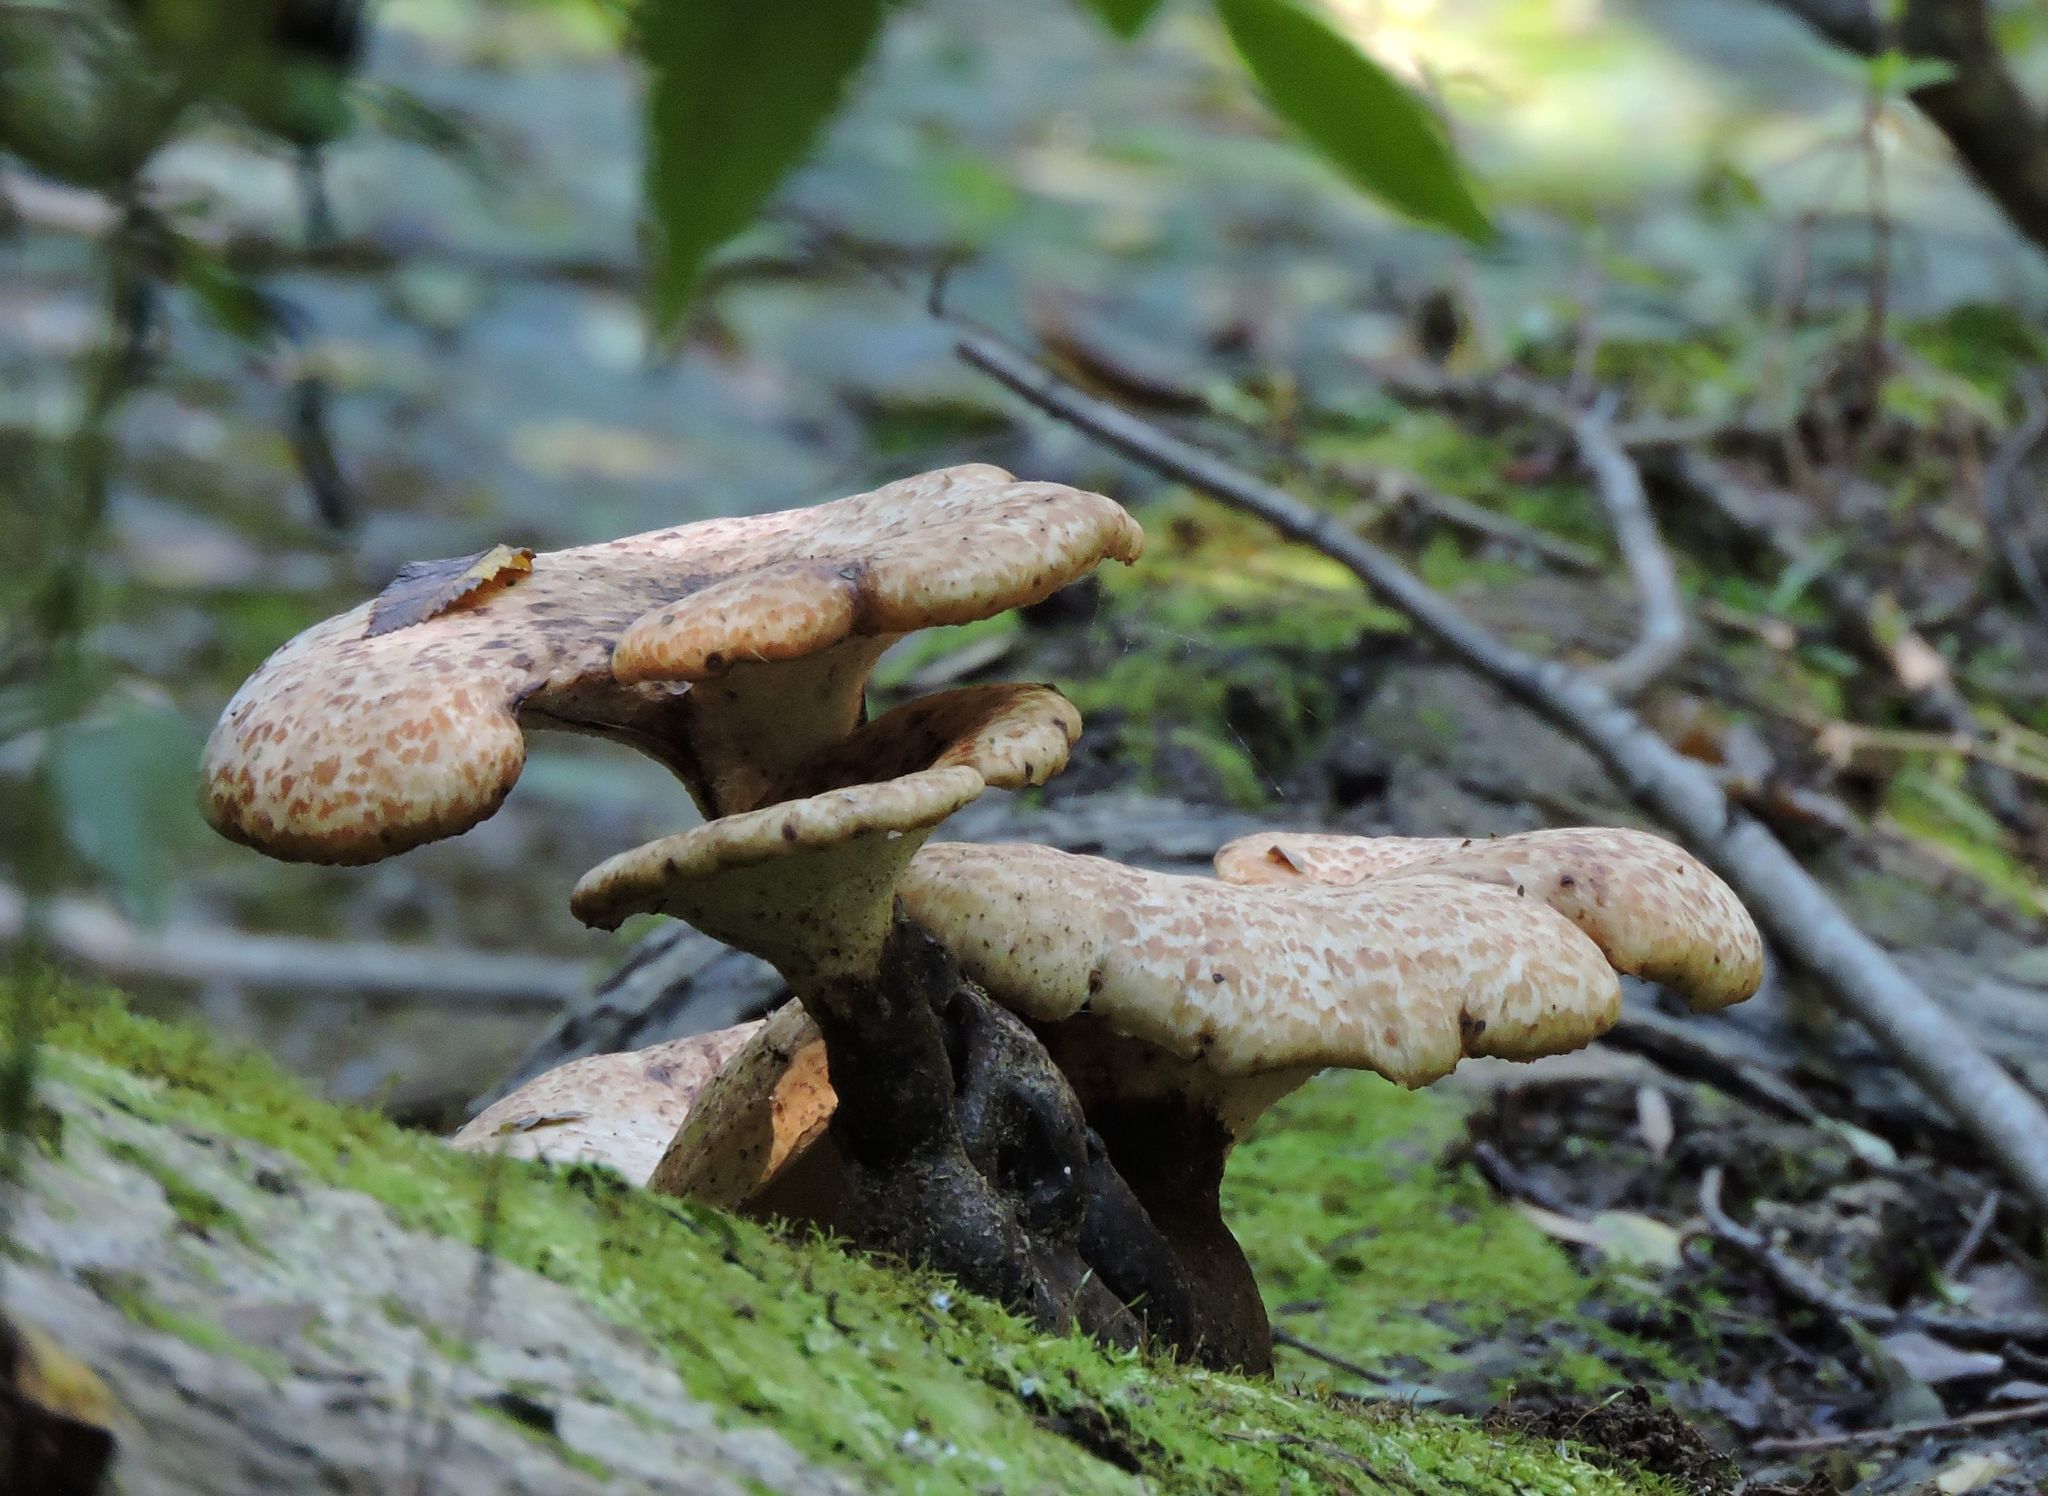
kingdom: Fungi
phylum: Basidiomycota
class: Agaricomycetes
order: Polyporales
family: Polyporaceae
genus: Cerioporus
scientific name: Cerioporus squamosus
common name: Dryad's saddle
